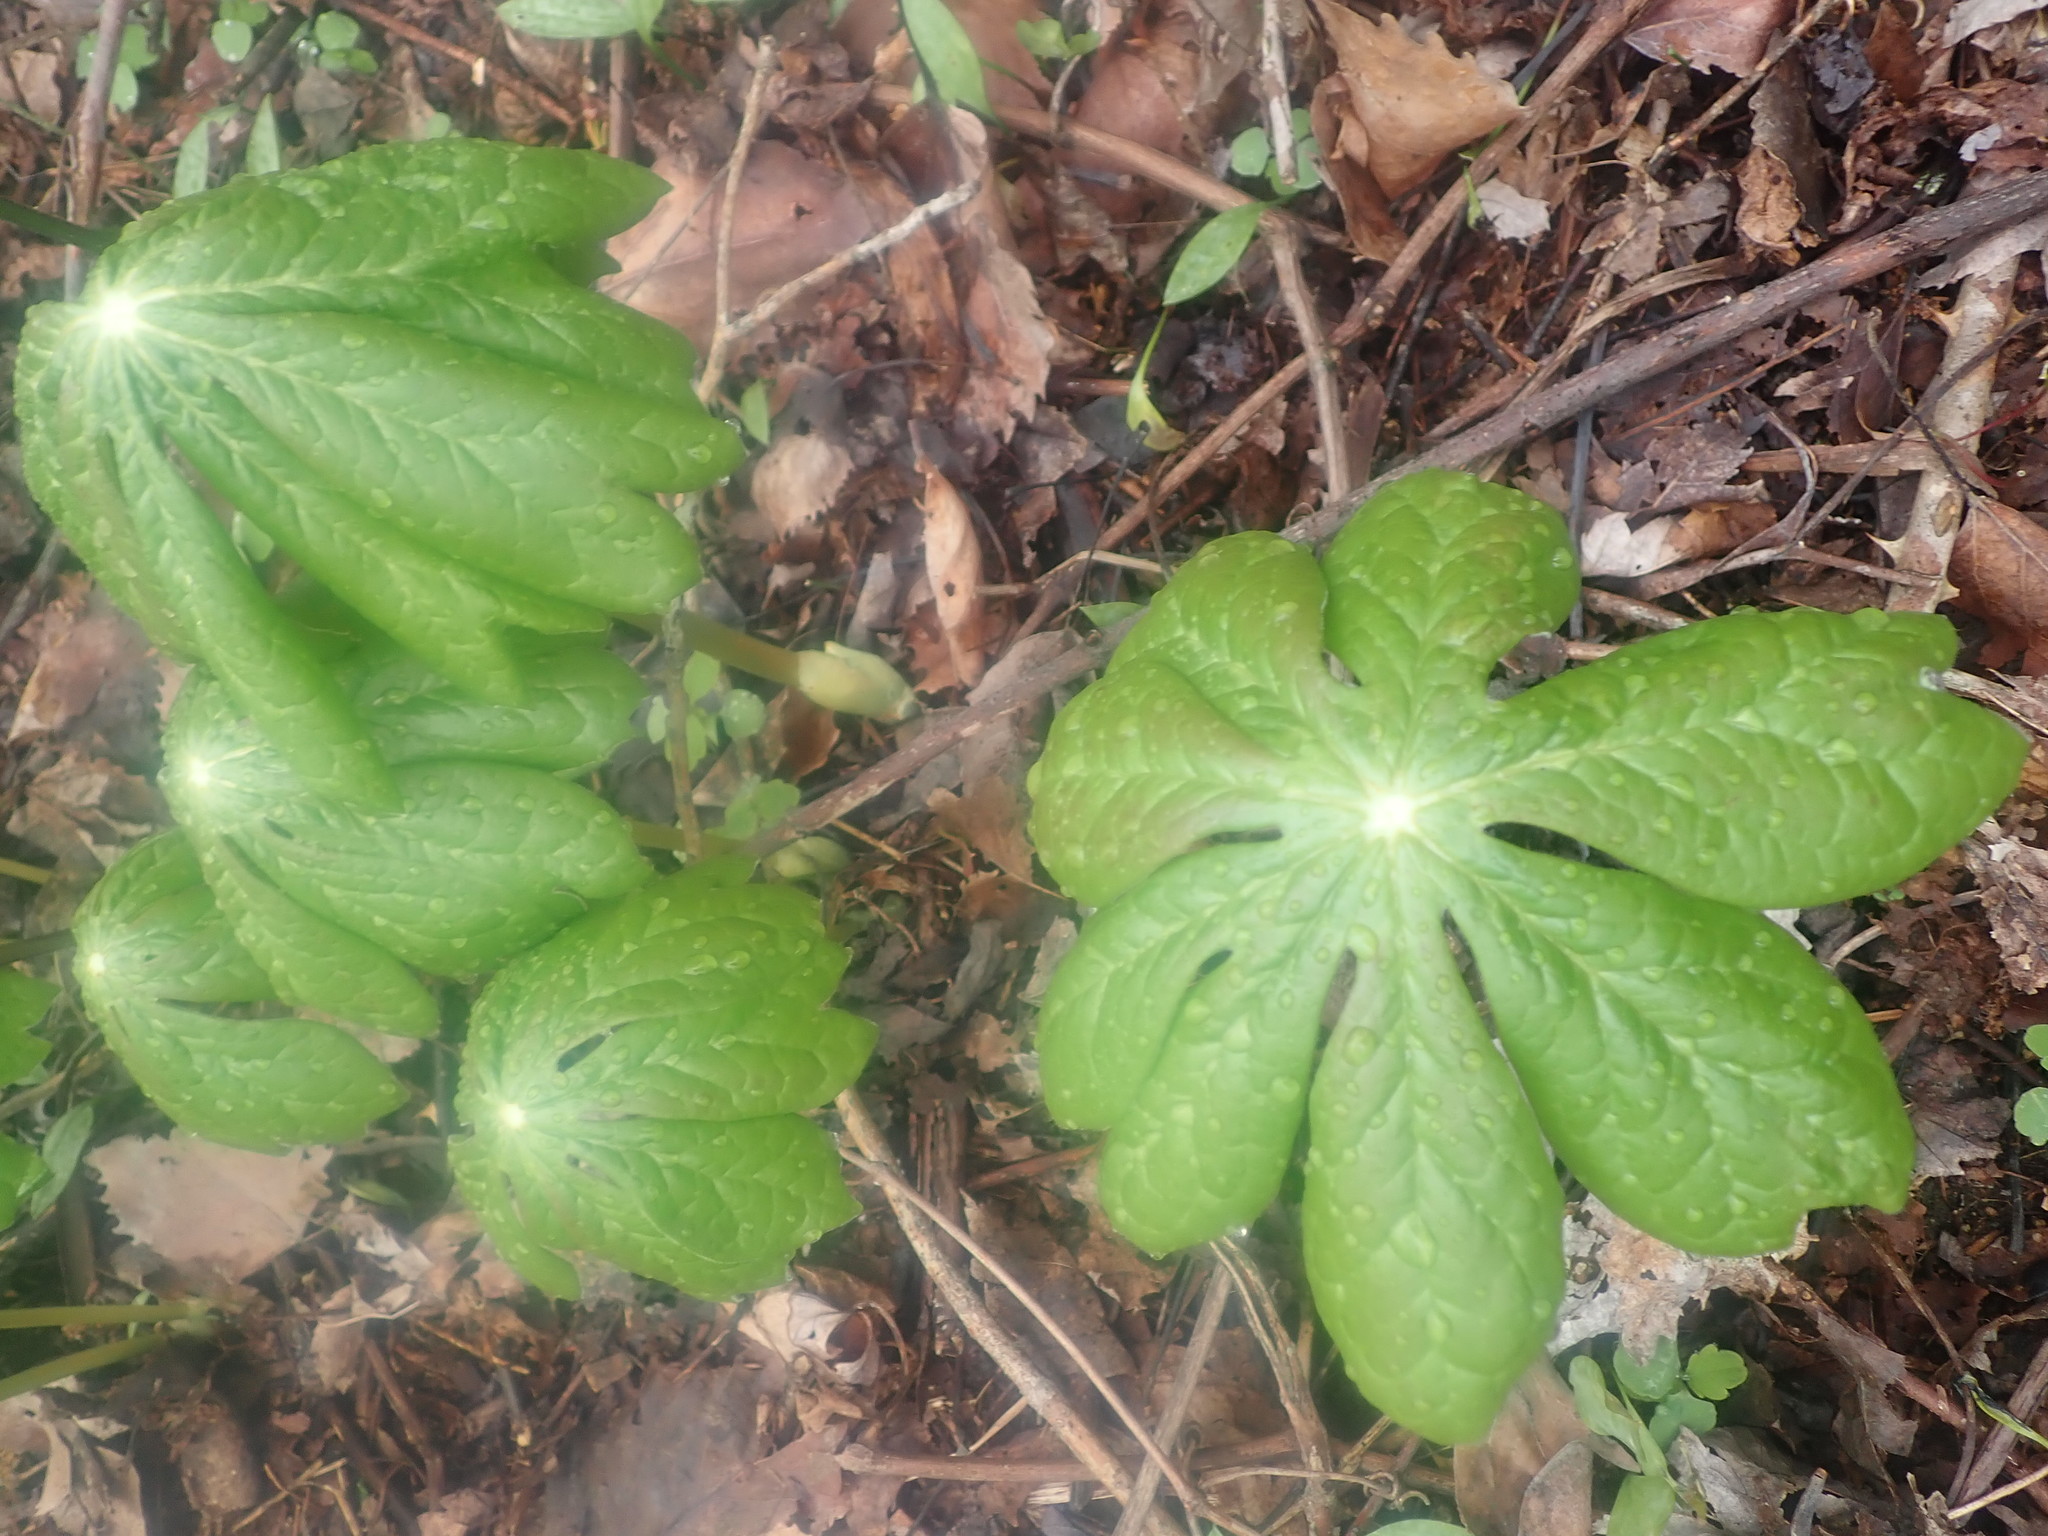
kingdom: Plantae
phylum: Tracheophyta
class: Magnoliopsida
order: Ranunculales
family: Berberidaceae
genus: Podophyllum
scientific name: Podophyllum peltatum
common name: Wild mandrake
